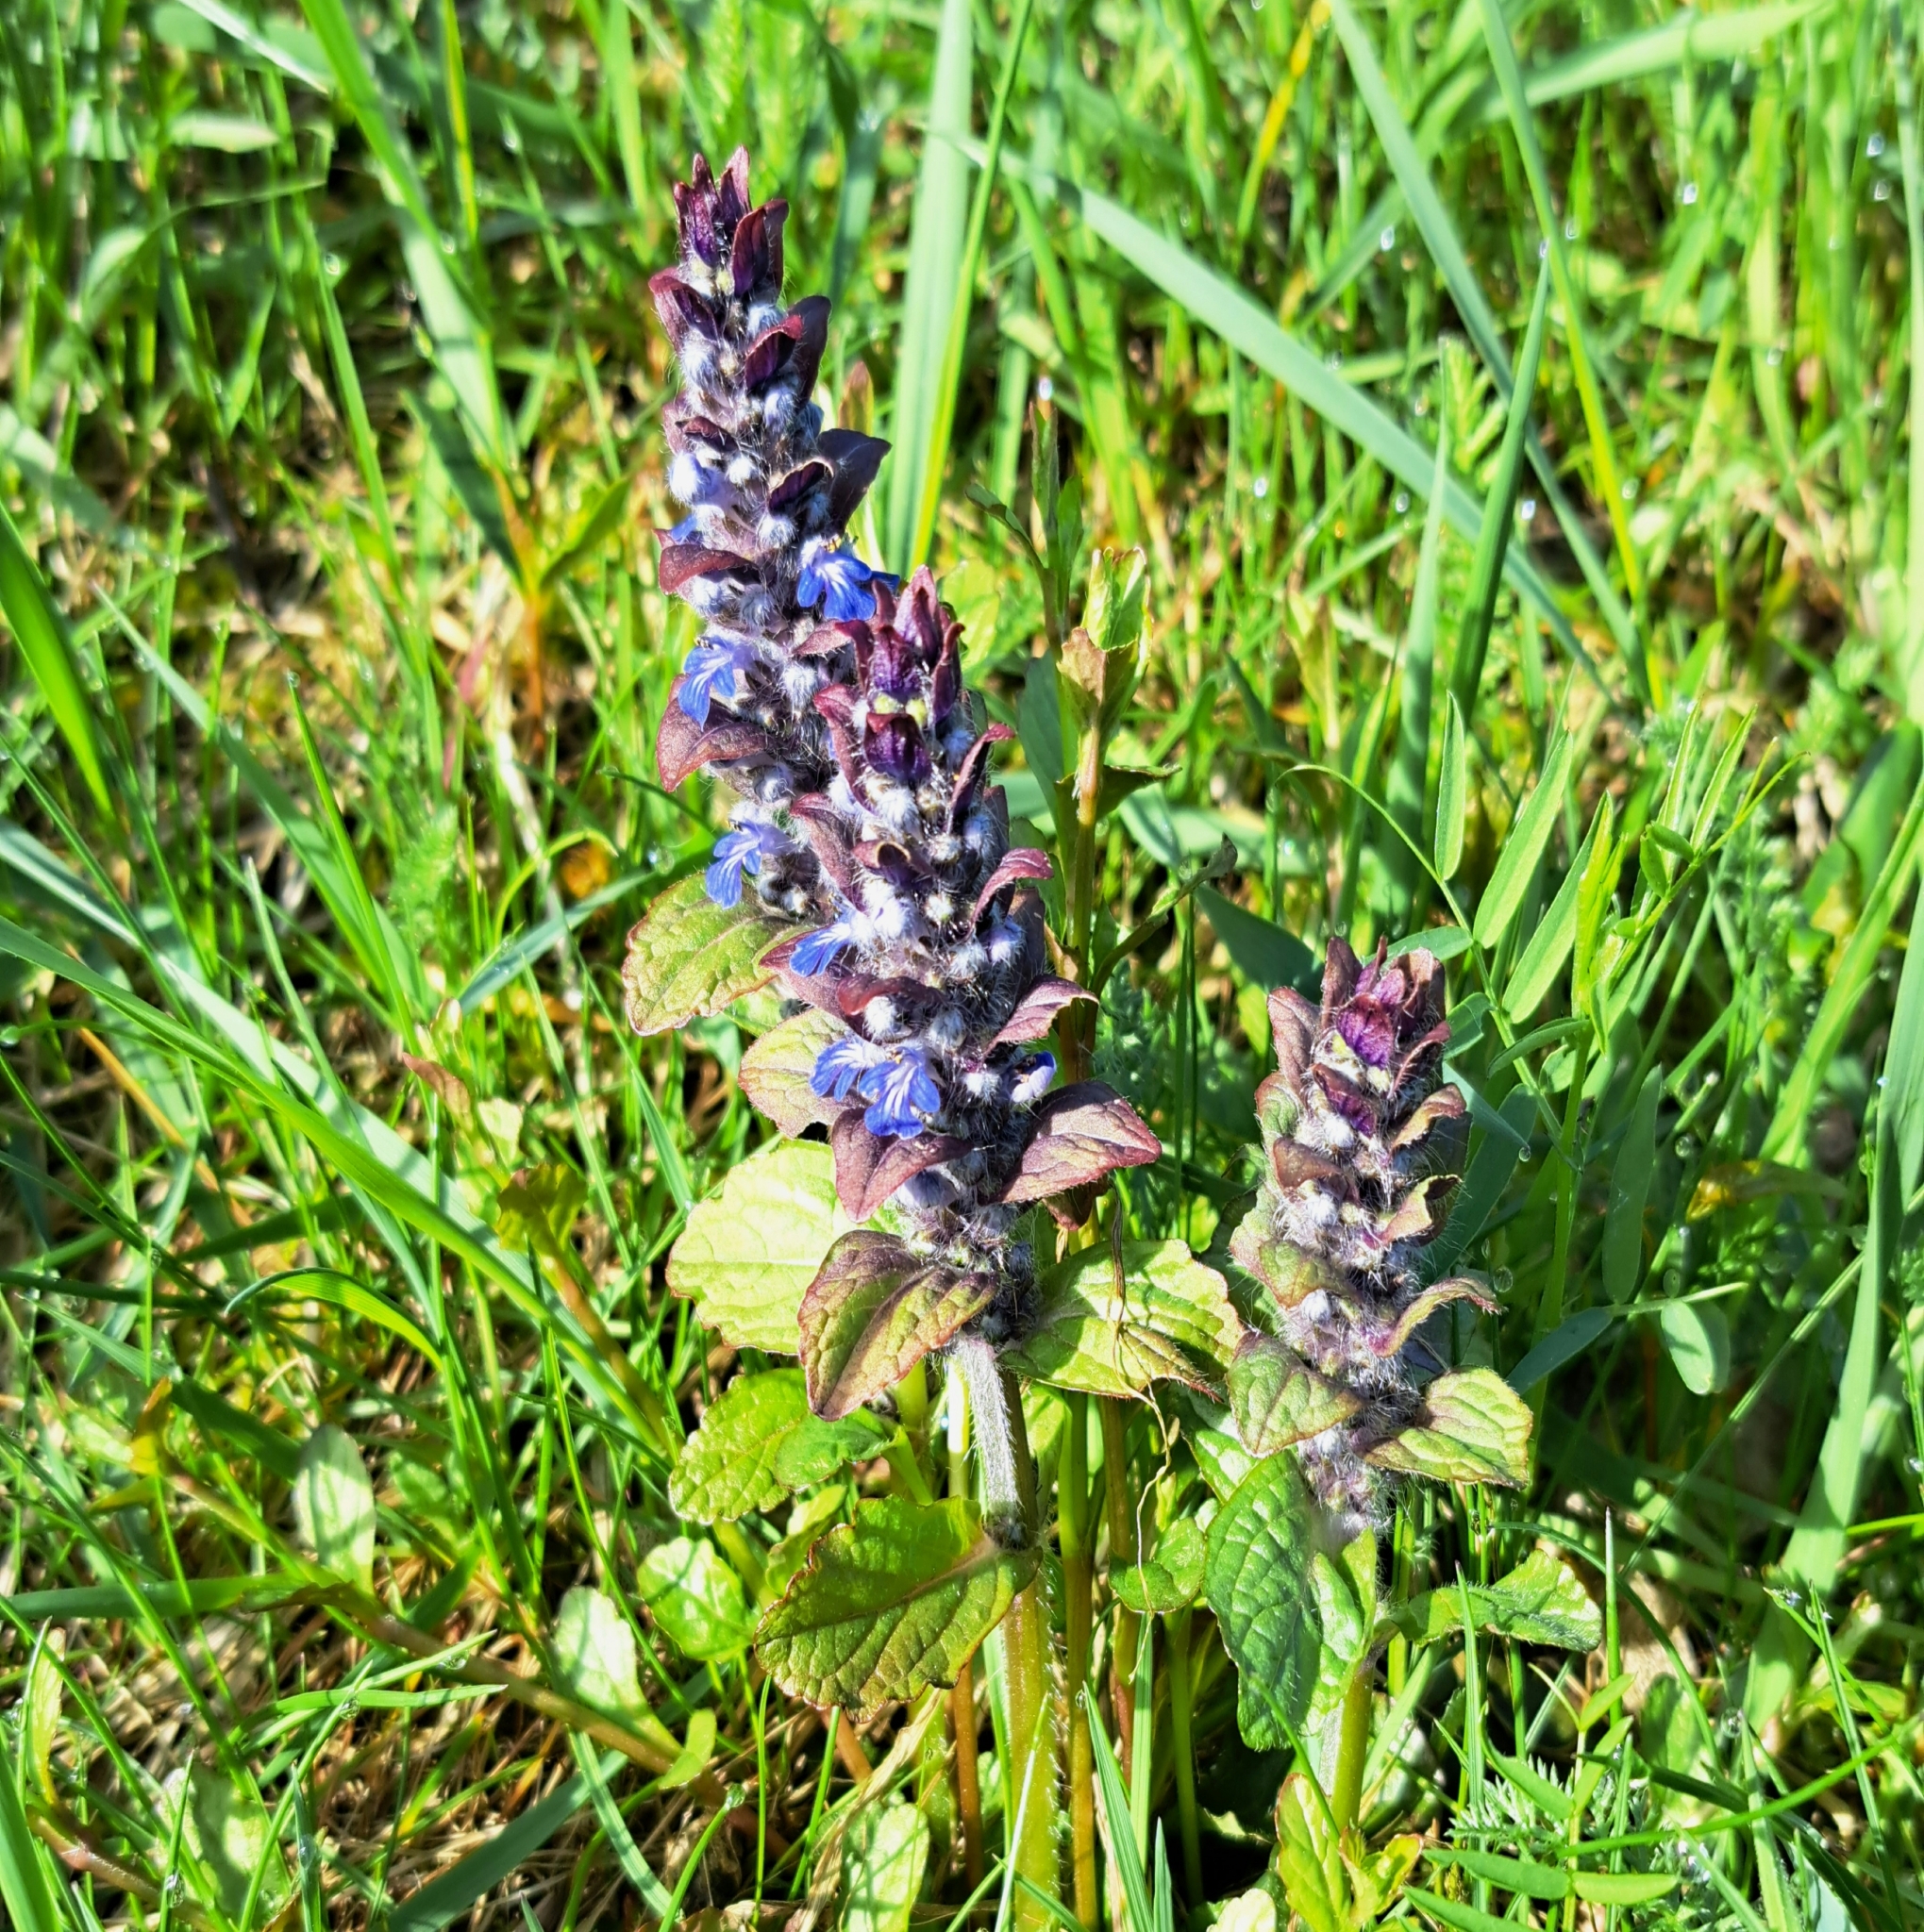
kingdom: Plantae
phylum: Tracheophyta
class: Magnoliopsida
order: Lamiales
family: Lamiaceae
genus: Ajuga
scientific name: Ajuga reptans
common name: Bugle
